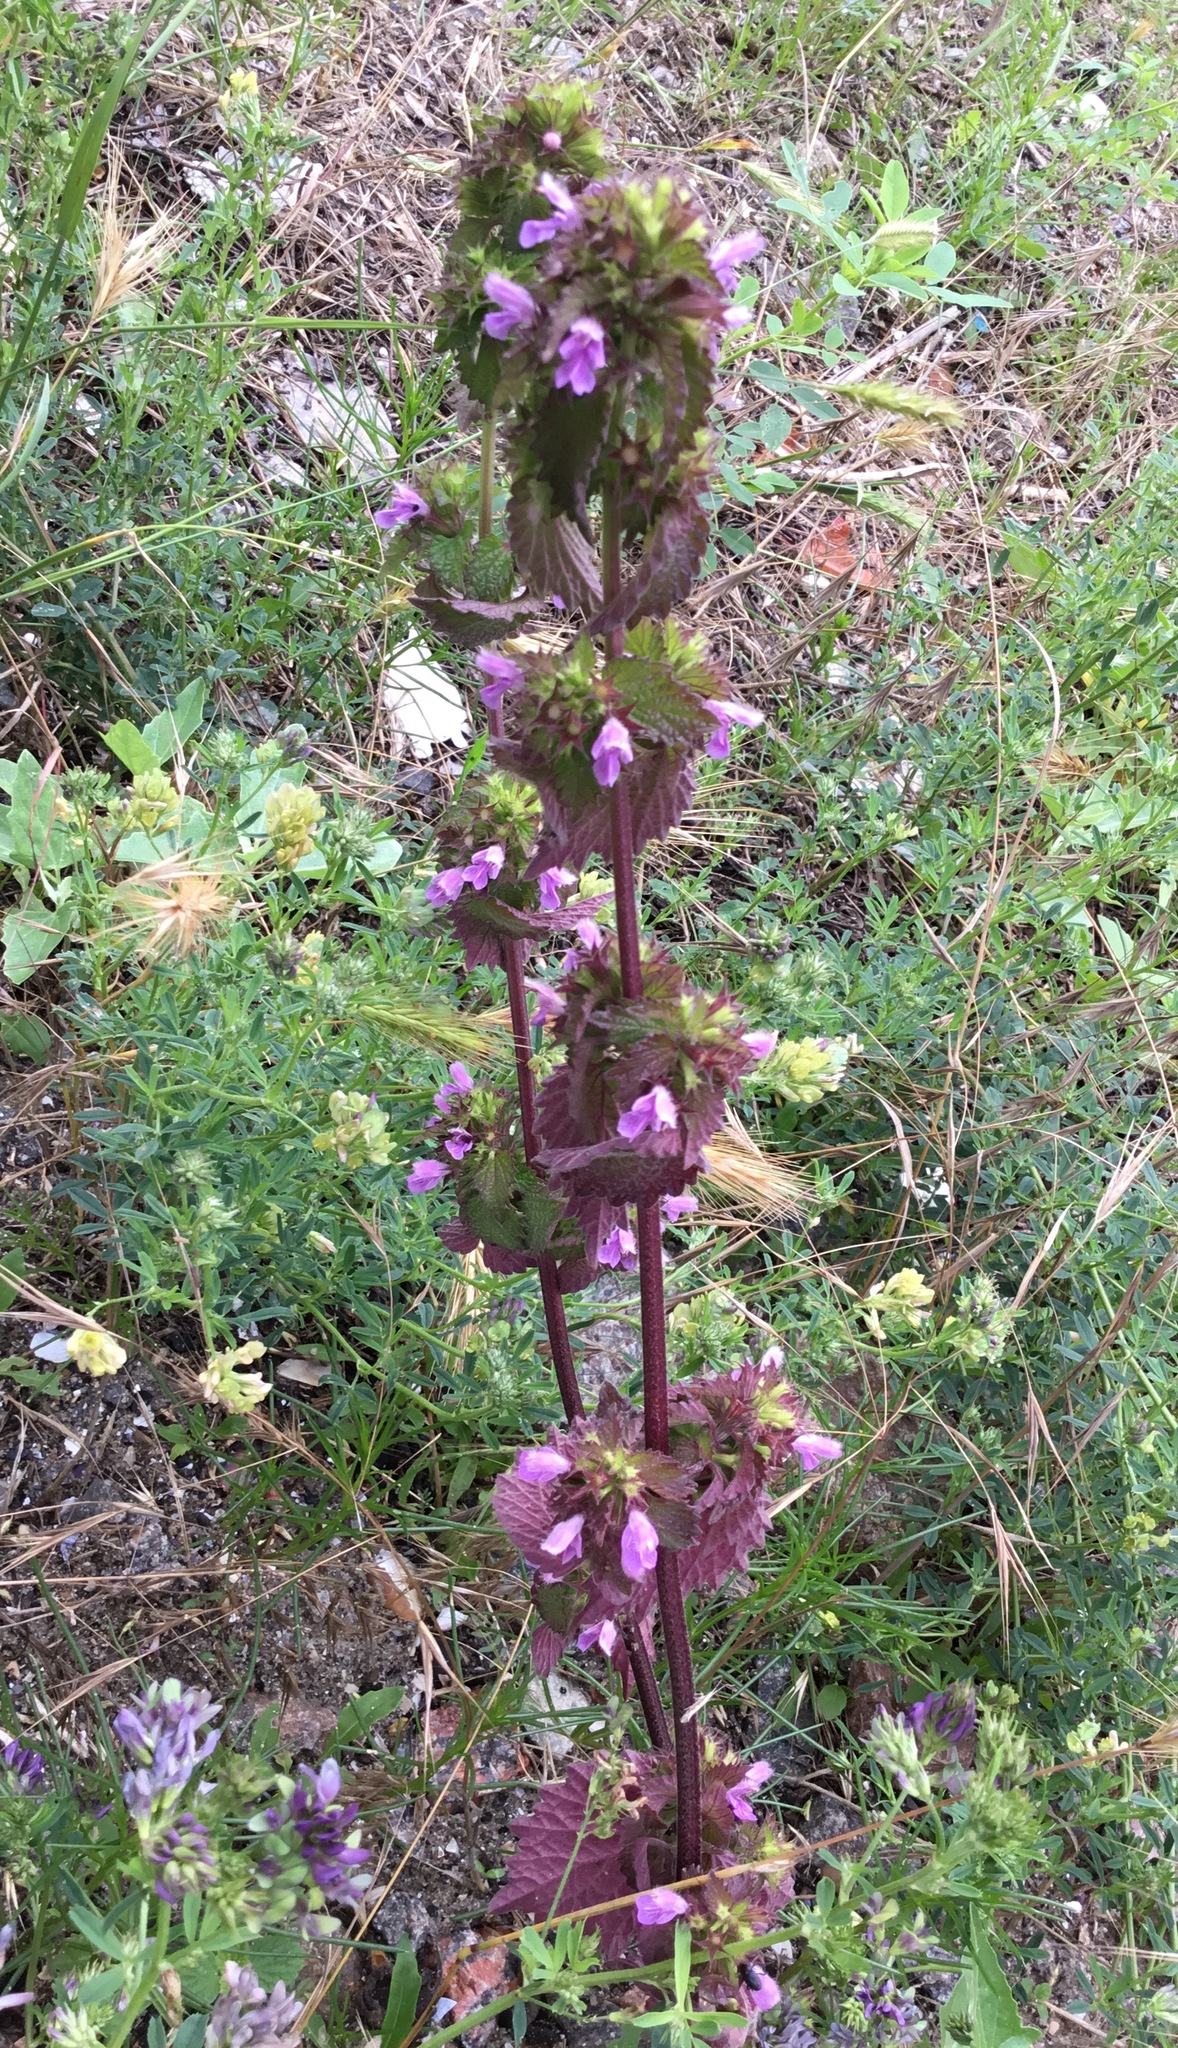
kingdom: Plantae
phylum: Tracheophyta
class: Magnoliopsida
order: Lamiales
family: Lamiaceae
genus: Ballota
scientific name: Ballota nigra
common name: Black horehound
